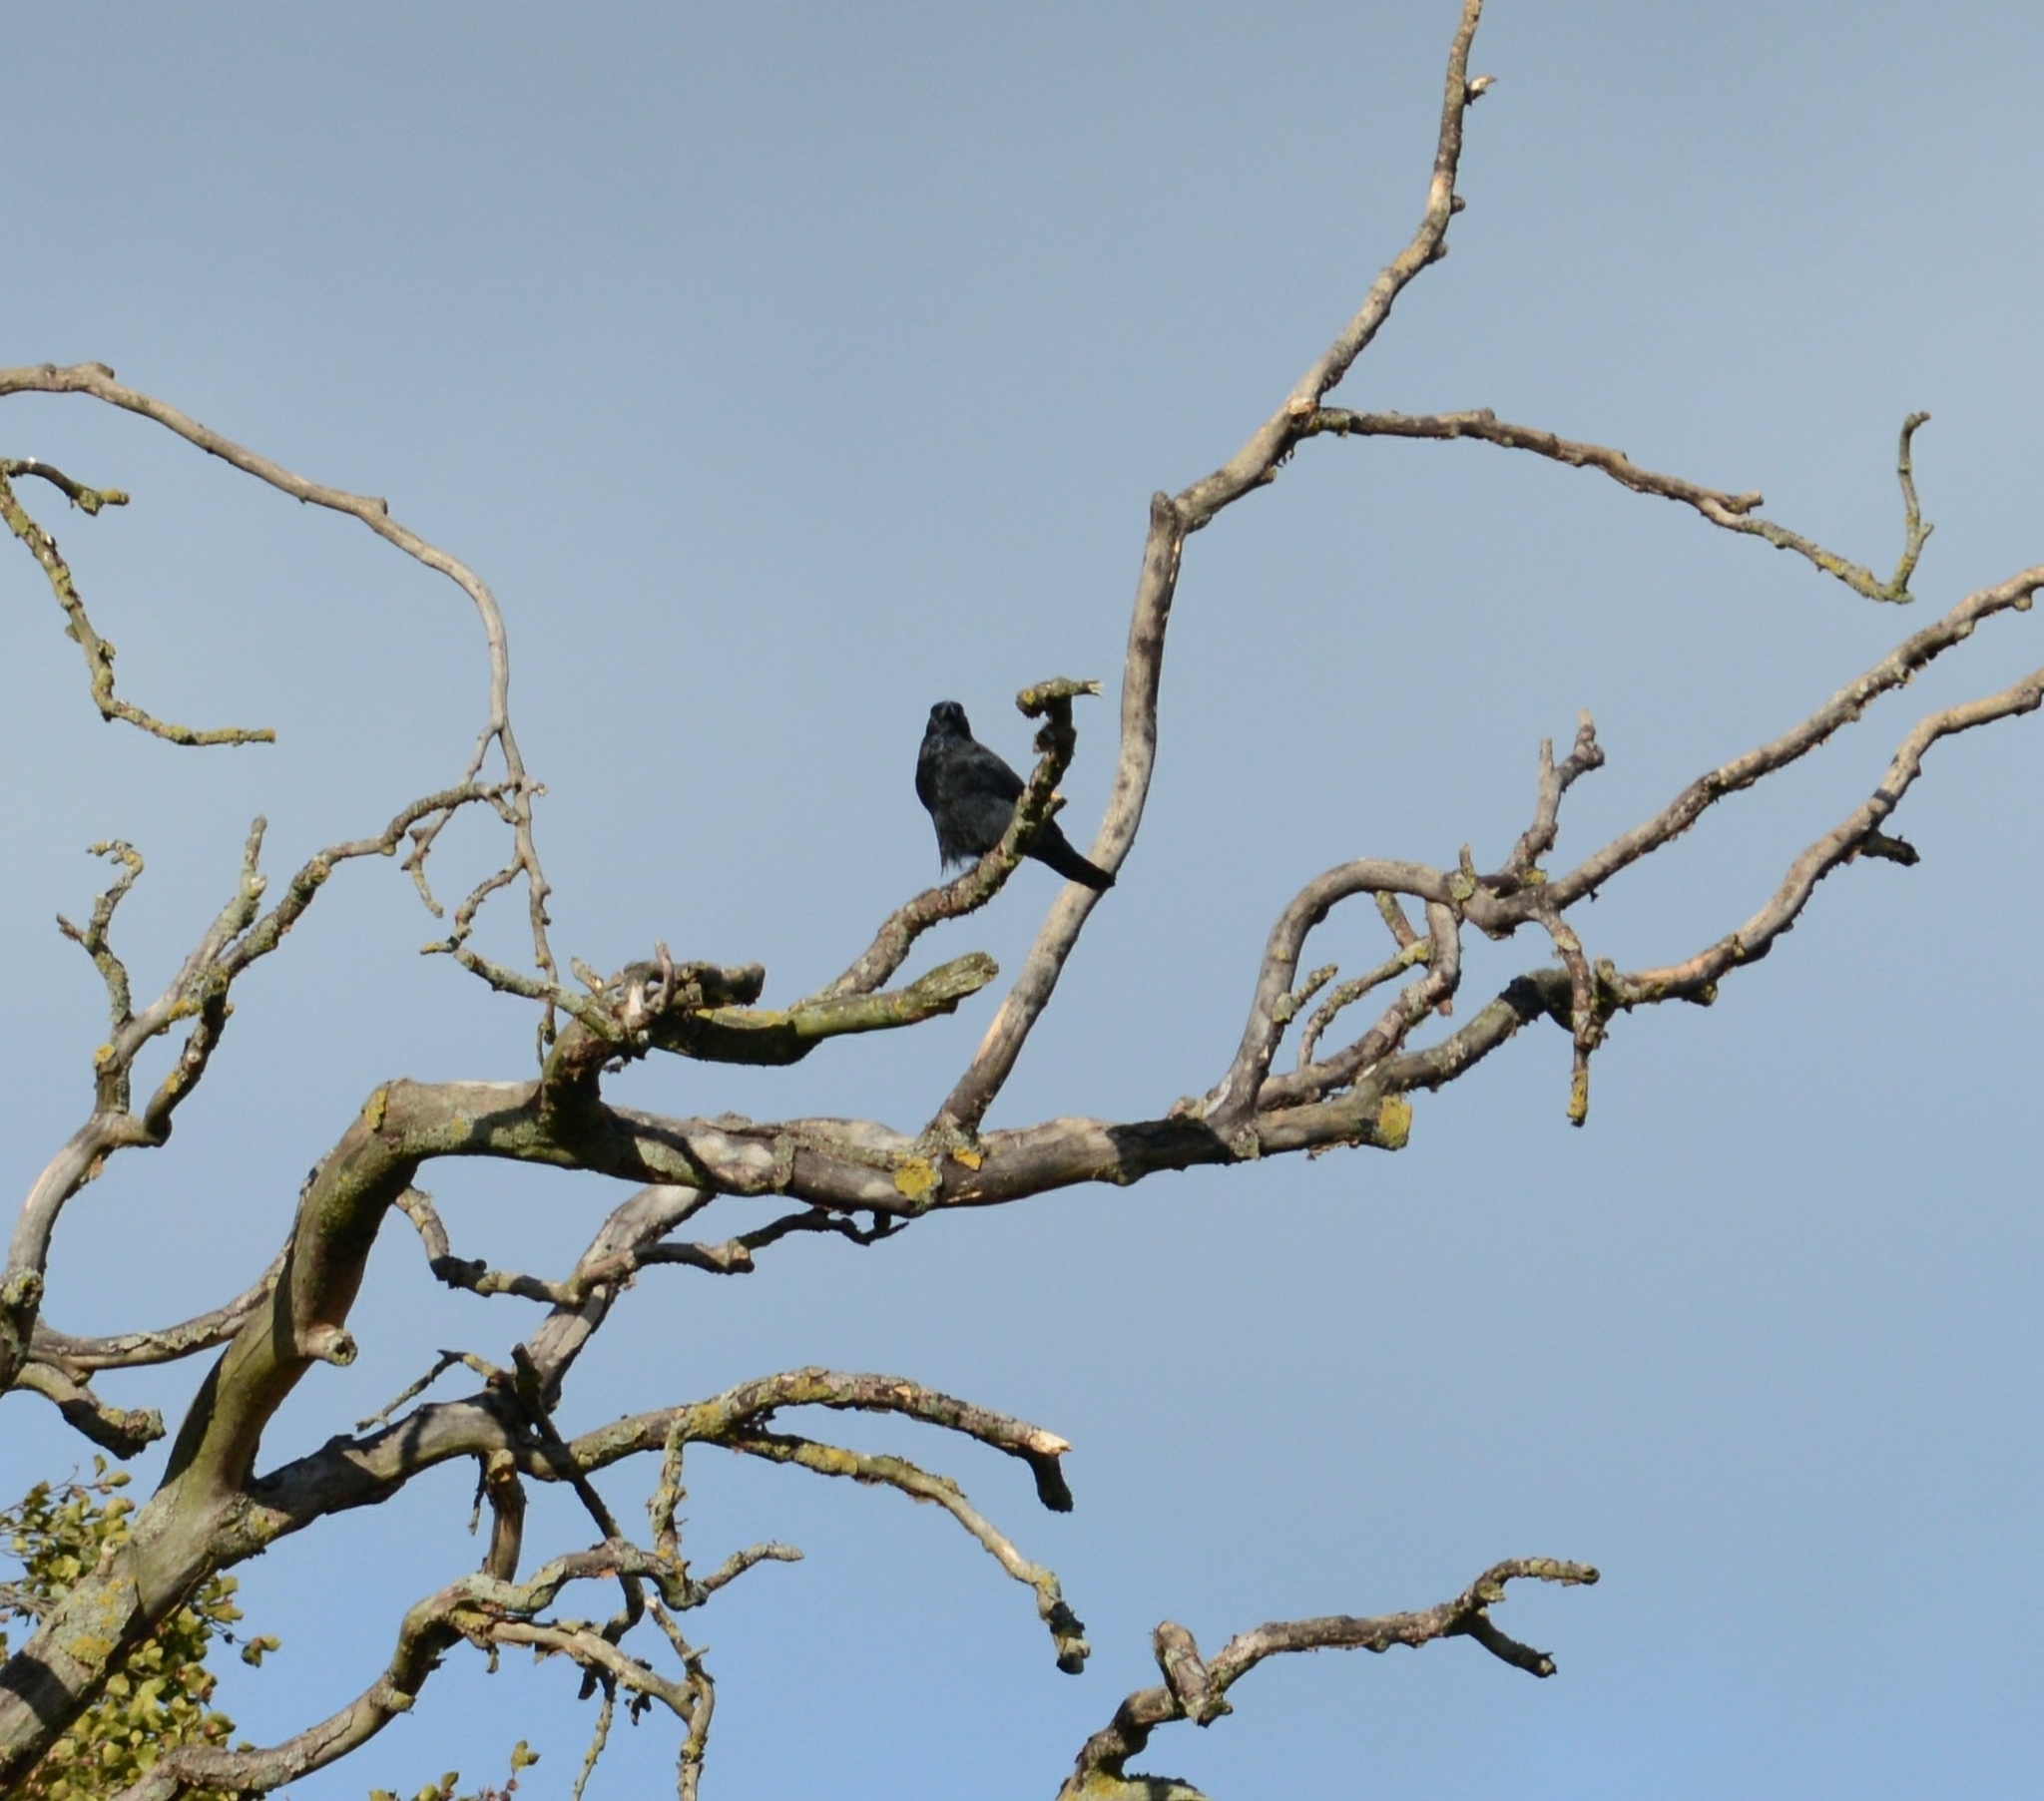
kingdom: Animalia
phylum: Chordata
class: Aves
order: Passeriformes
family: Corvidae
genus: Corvus
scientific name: Corvus corone
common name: Carrion crow
